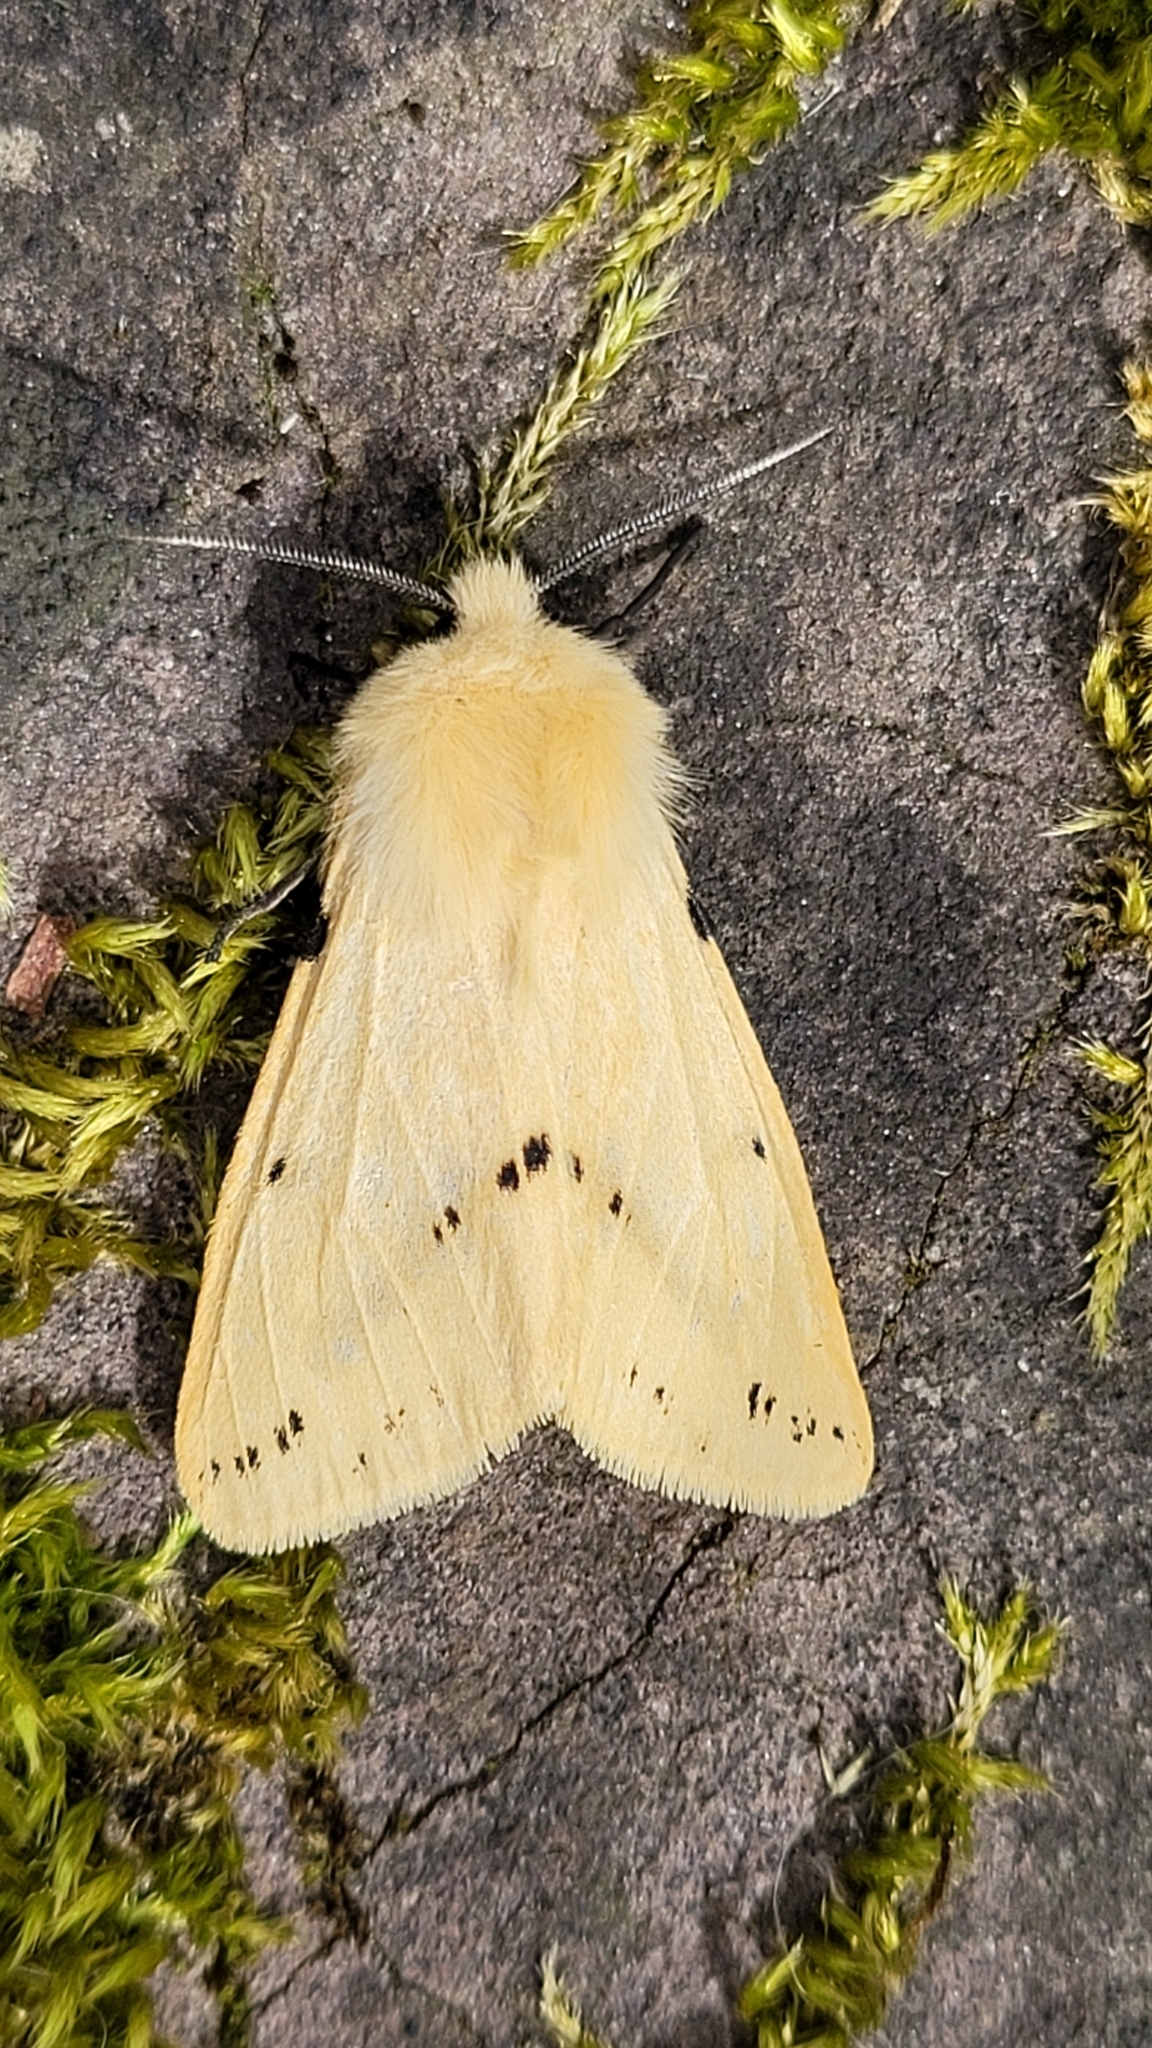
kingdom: Animalia
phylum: Arthropoda
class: Insecta
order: Lepidoptera
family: Erebidae
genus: Spilarctia
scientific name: Spilarctia lutea
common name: Buff ermine
